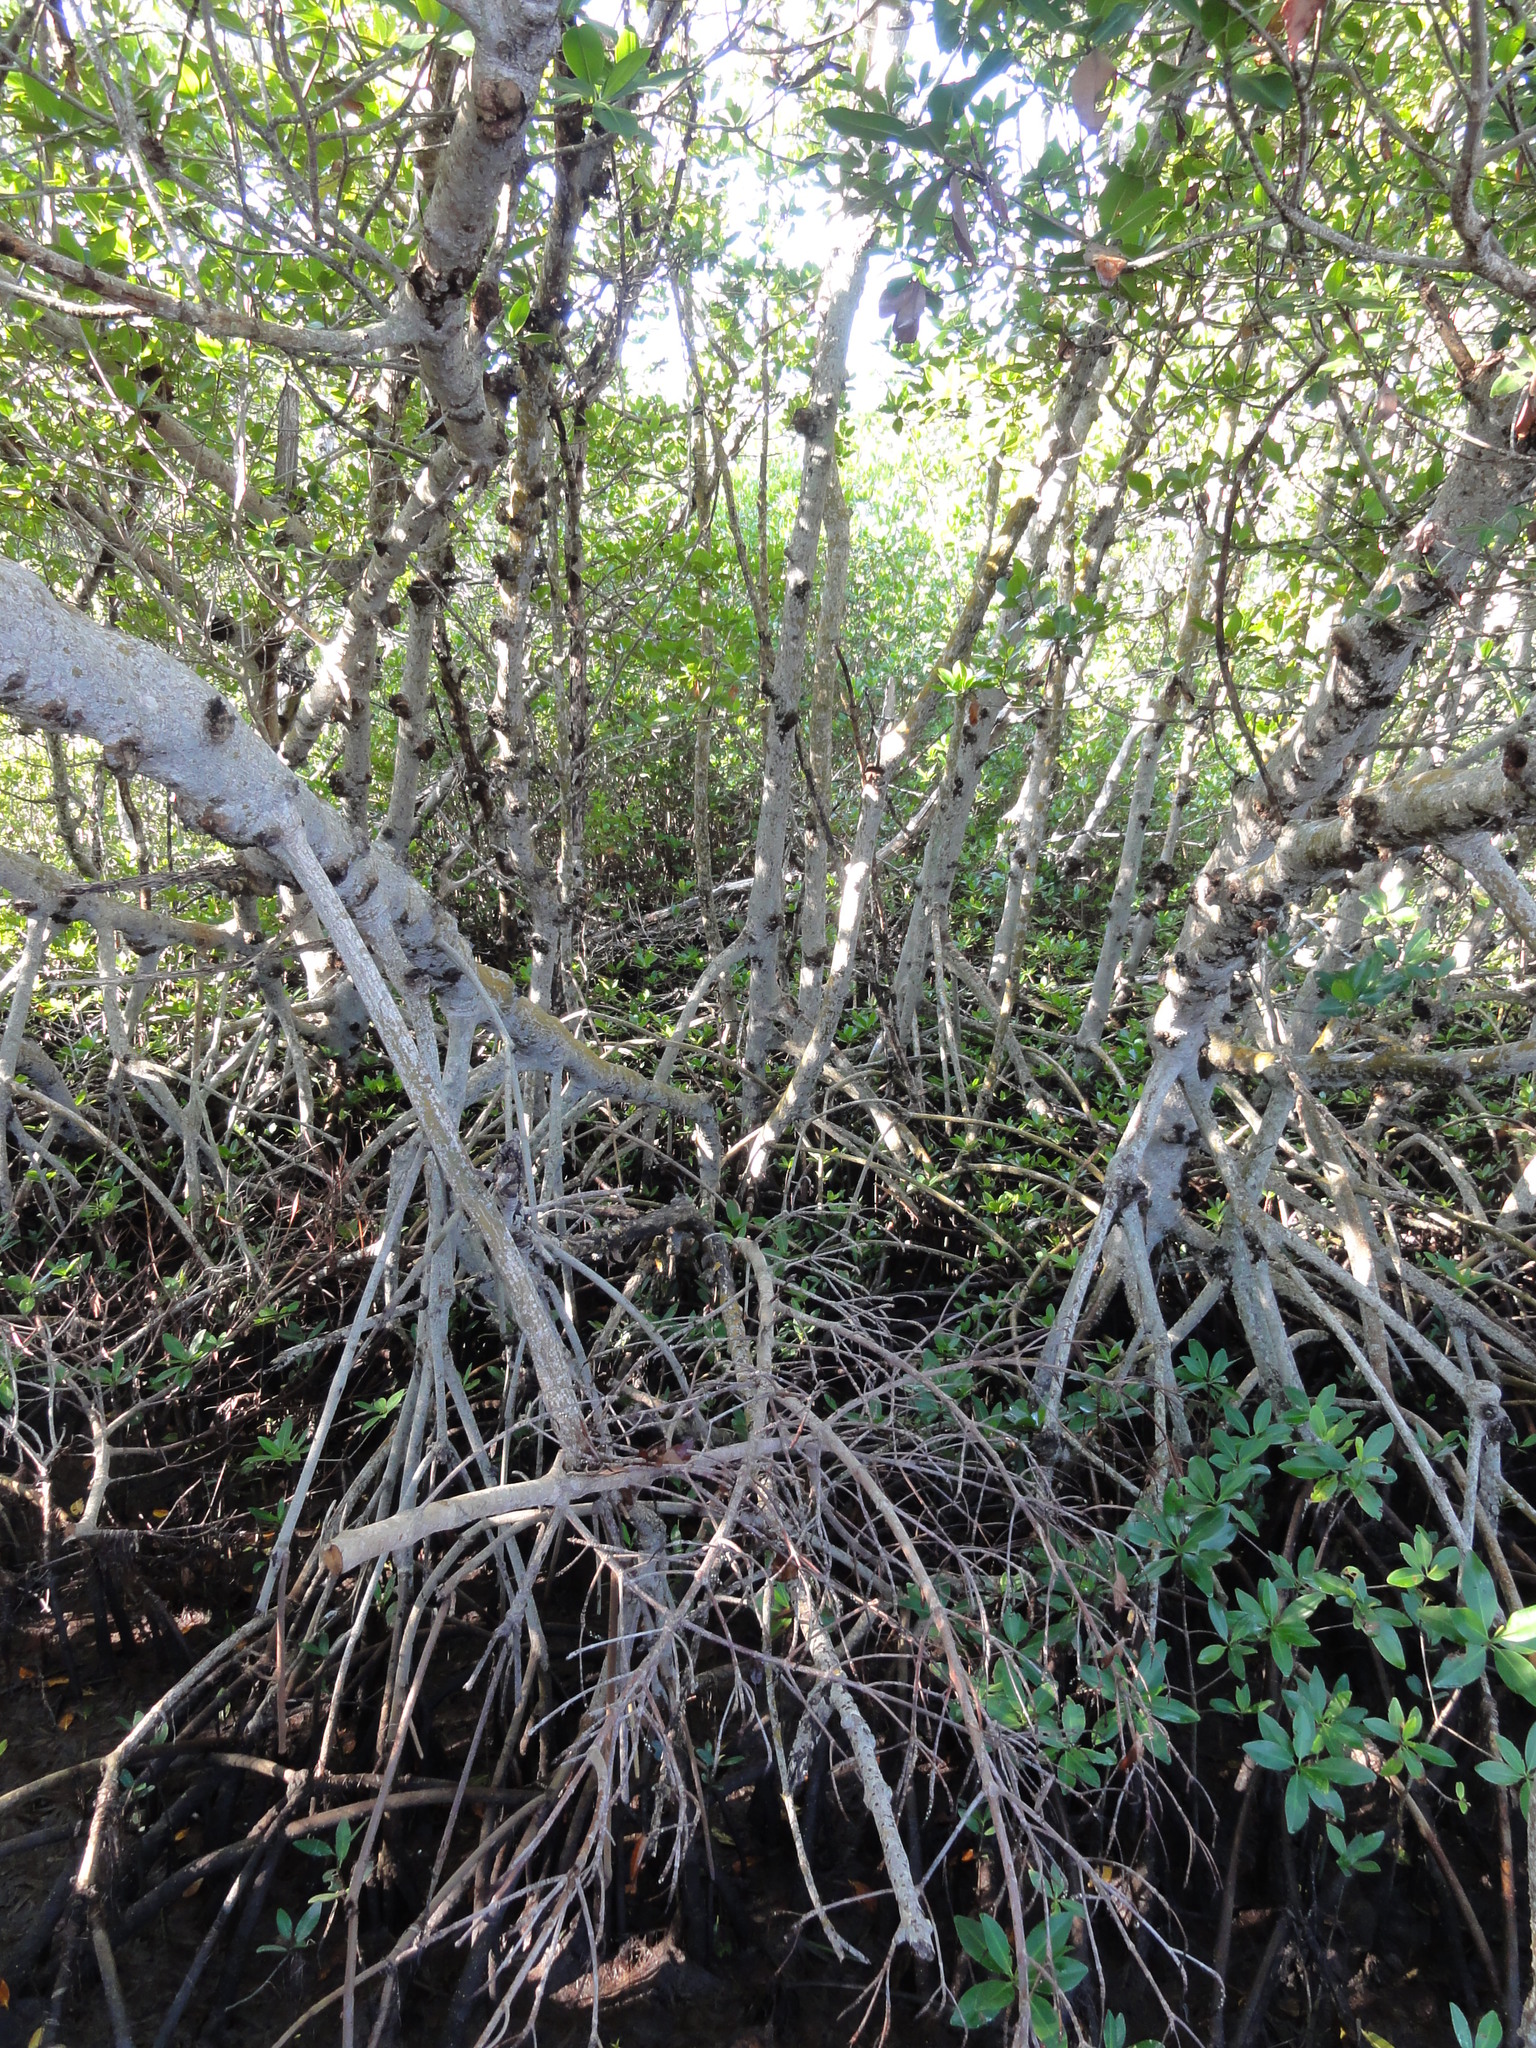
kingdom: Plantae
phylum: Tracheophyta
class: Magnoliopsida
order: Malpighiales
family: Rhizophoraceae
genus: Rhizophora
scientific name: Rhizophora mangle
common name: Red mangrove
